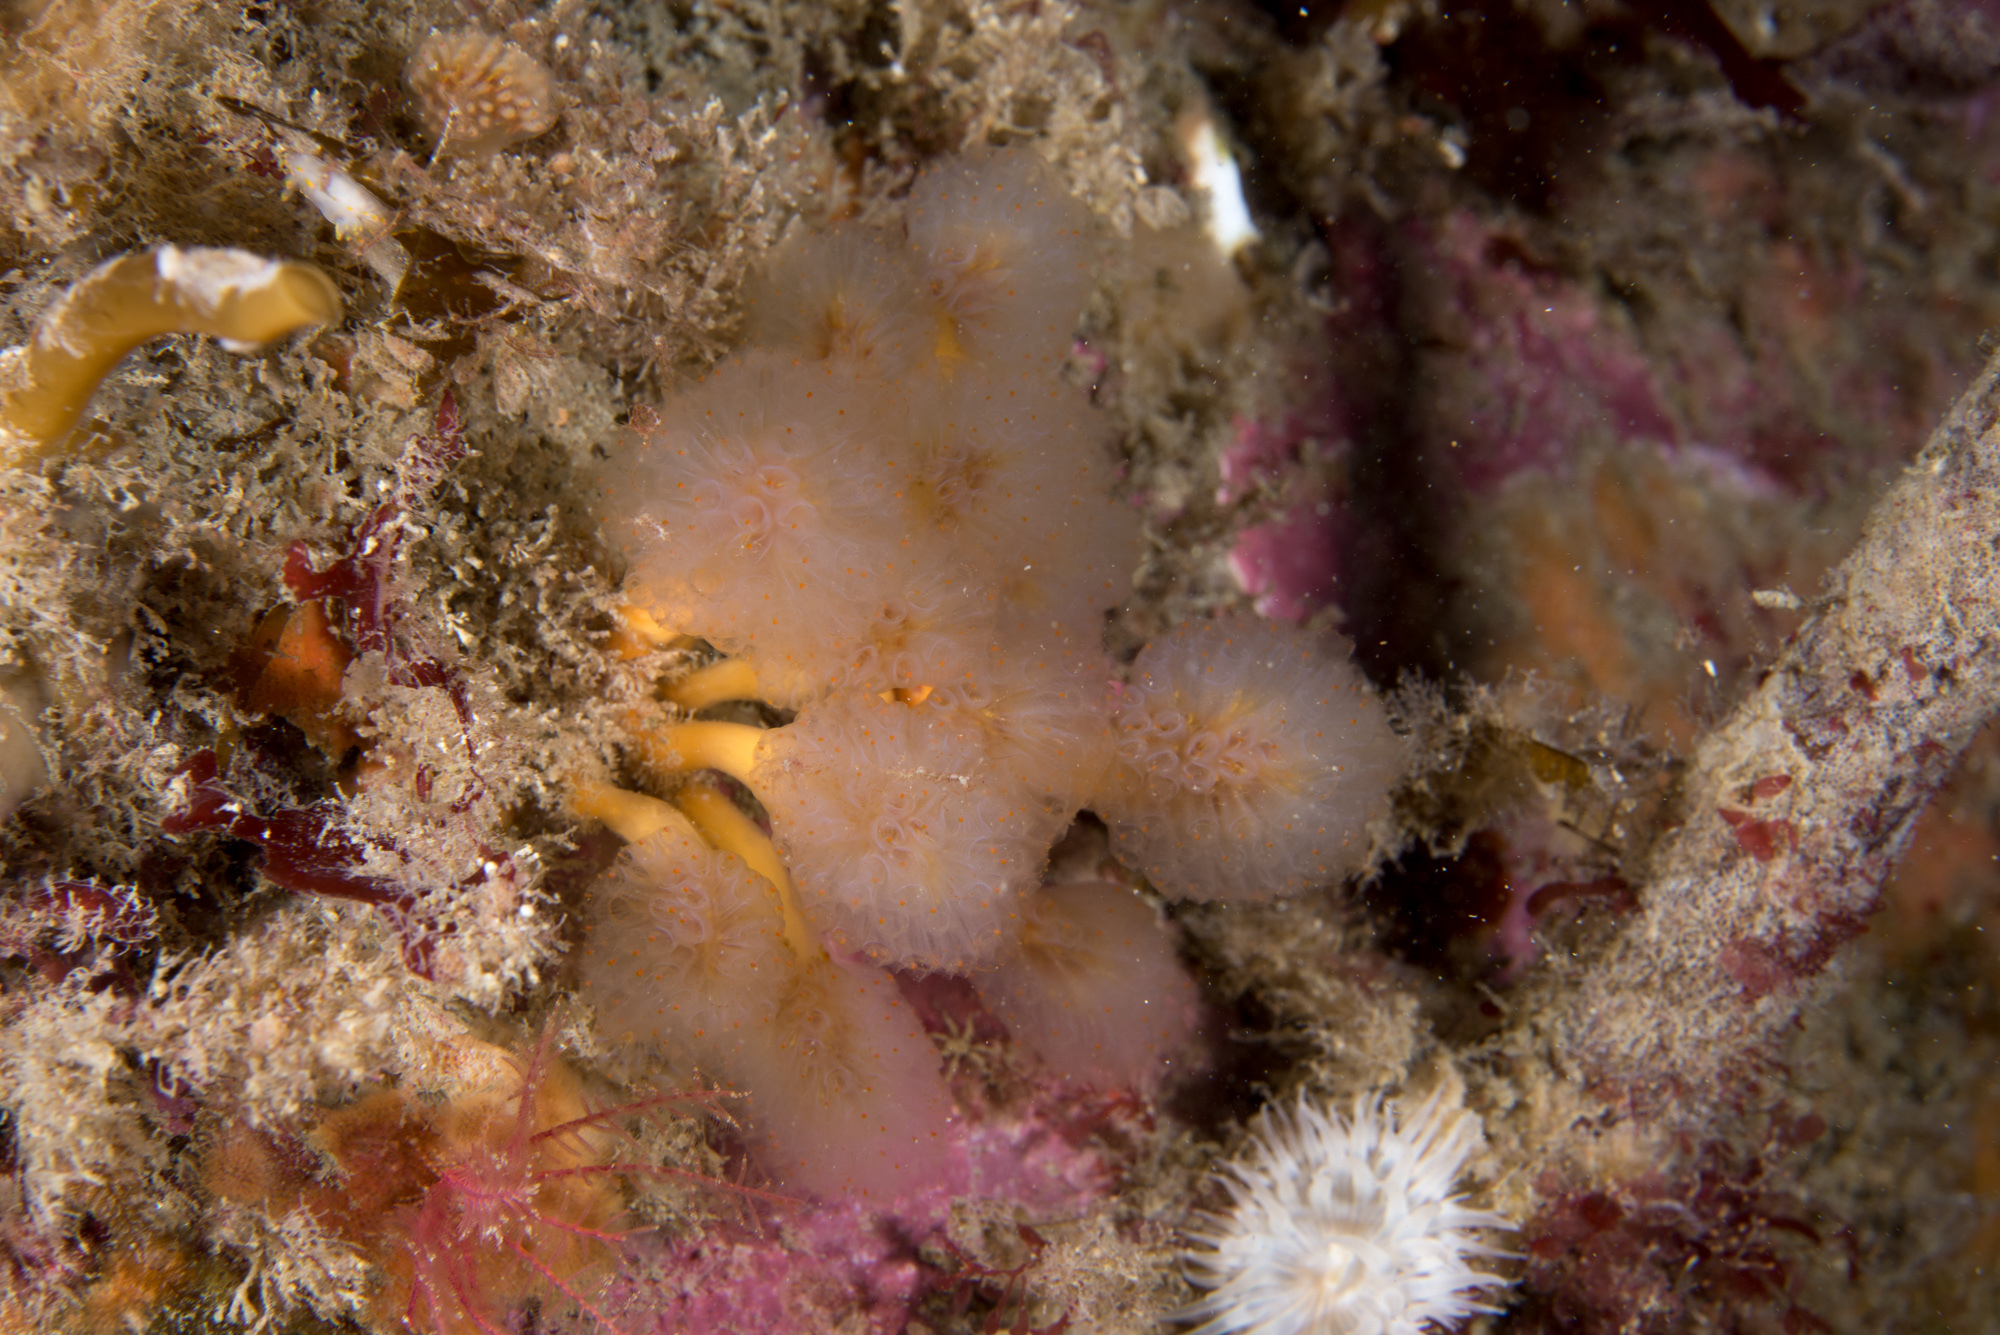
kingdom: Animalia
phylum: Chordata
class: Ascidiacea
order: Aplousobranchia
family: Polyclinidae
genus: Aplidium
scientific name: Aplidium punctum
